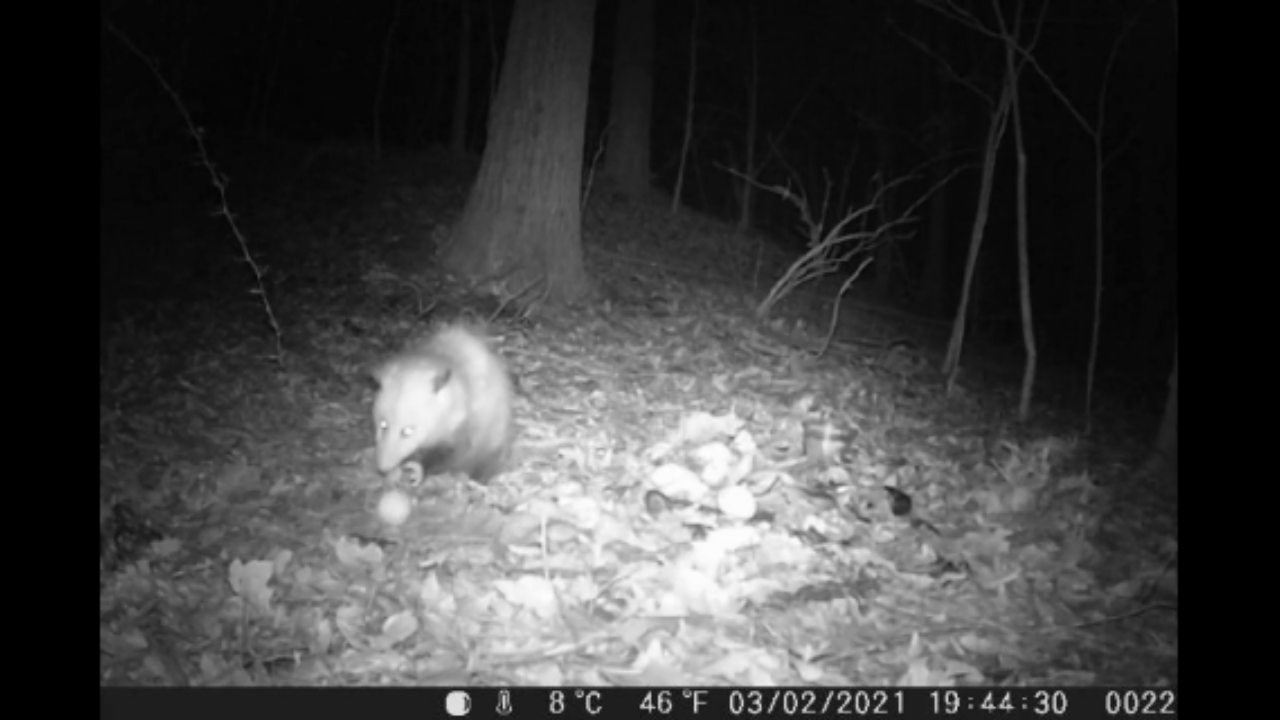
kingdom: Animalia
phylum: Chordata
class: Mammalia
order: Didelphimorphia
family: Didelphidae
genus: Didelphis
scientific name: Didelphis virginiana
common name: Virginia opossum
